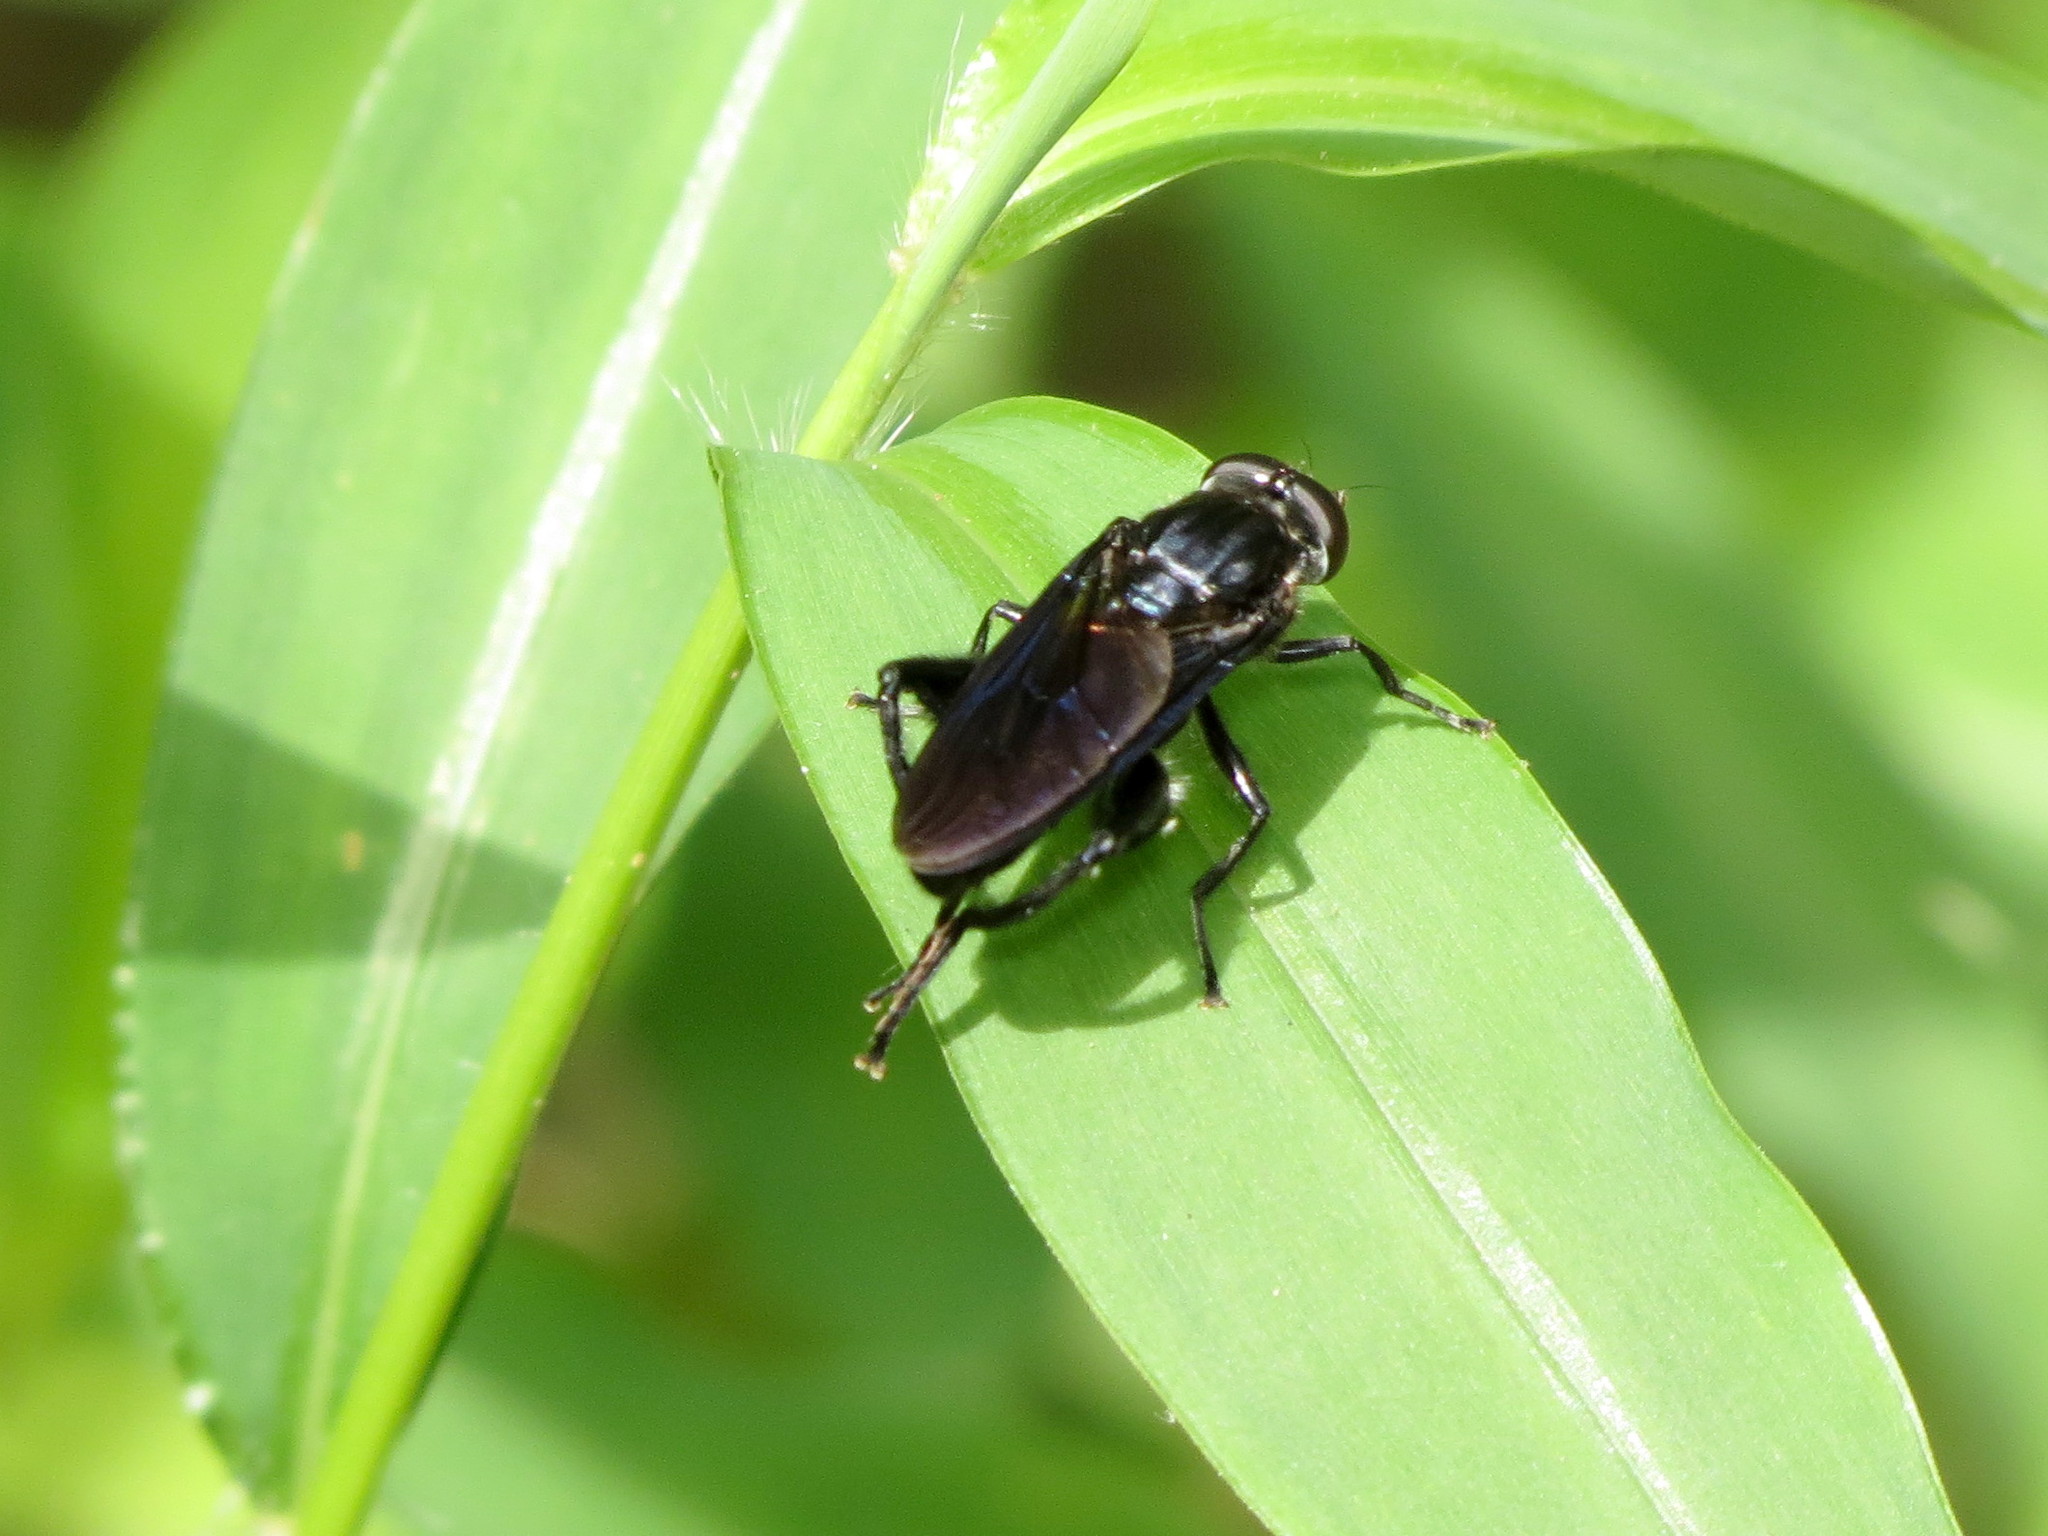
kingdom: Animalia
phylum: Arthropoda
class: Insecta
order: Diptera
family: Syrphidae
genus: Chalcosyrphus
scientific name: Chalcosyrphus chalybeus
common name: Violet leafwalker
